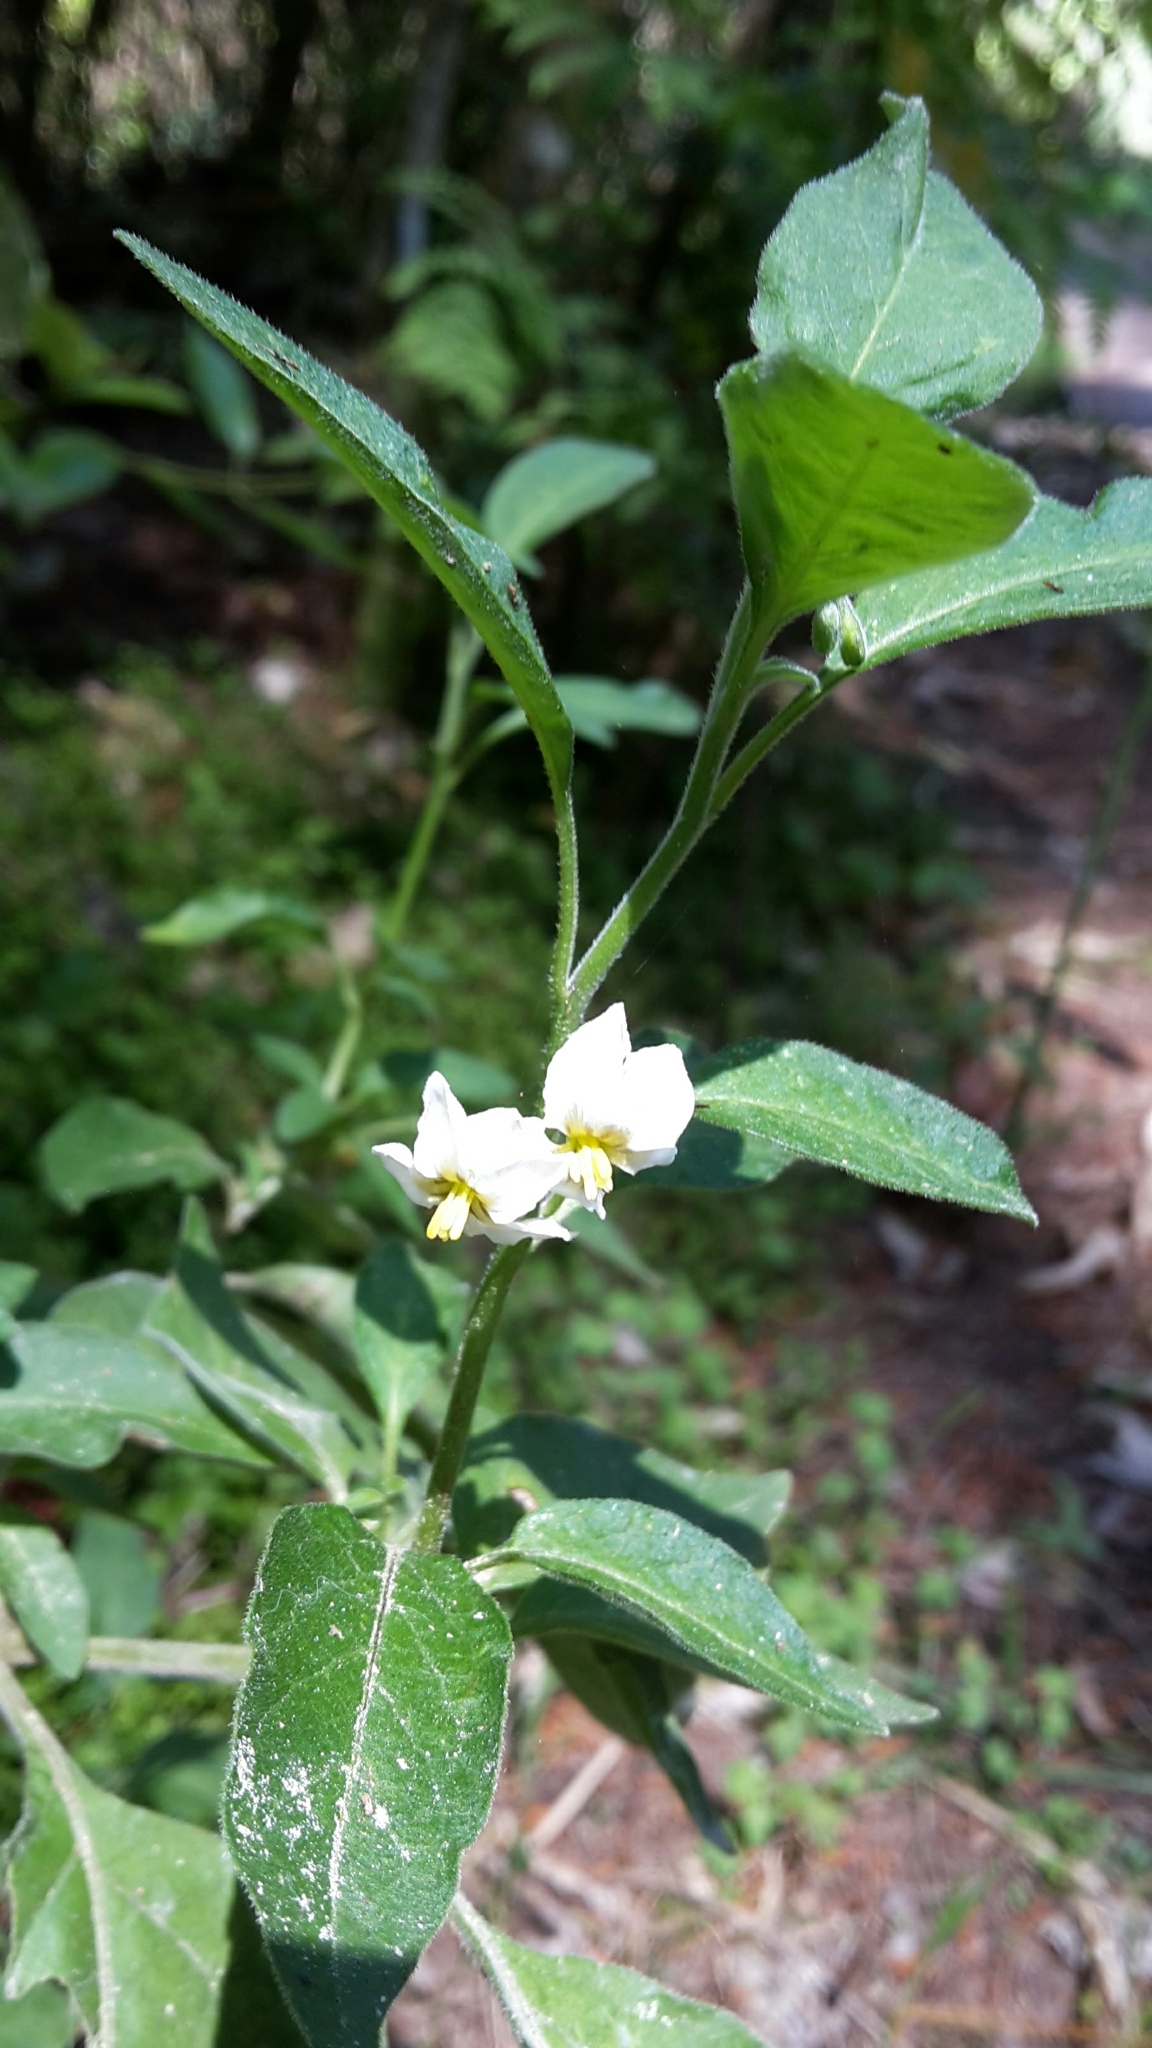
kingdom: Plantae
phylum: Tracheophyta
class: Magnoliopsida
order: Solanales
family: Solanaceae
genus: Solanum
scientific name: Solanum chenopodioides
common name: Tall nightshade
